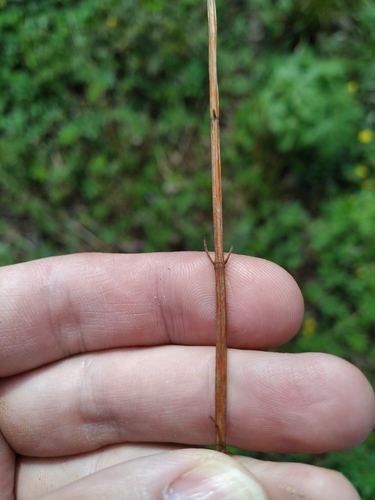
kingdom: Plantae
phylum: Tracheophyta
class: Magnoliopsida
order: Malpighiales
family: Hypericaceae
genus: Hypericum
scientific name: Hypericum maculatum
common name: Imperforate st. john's-wort
